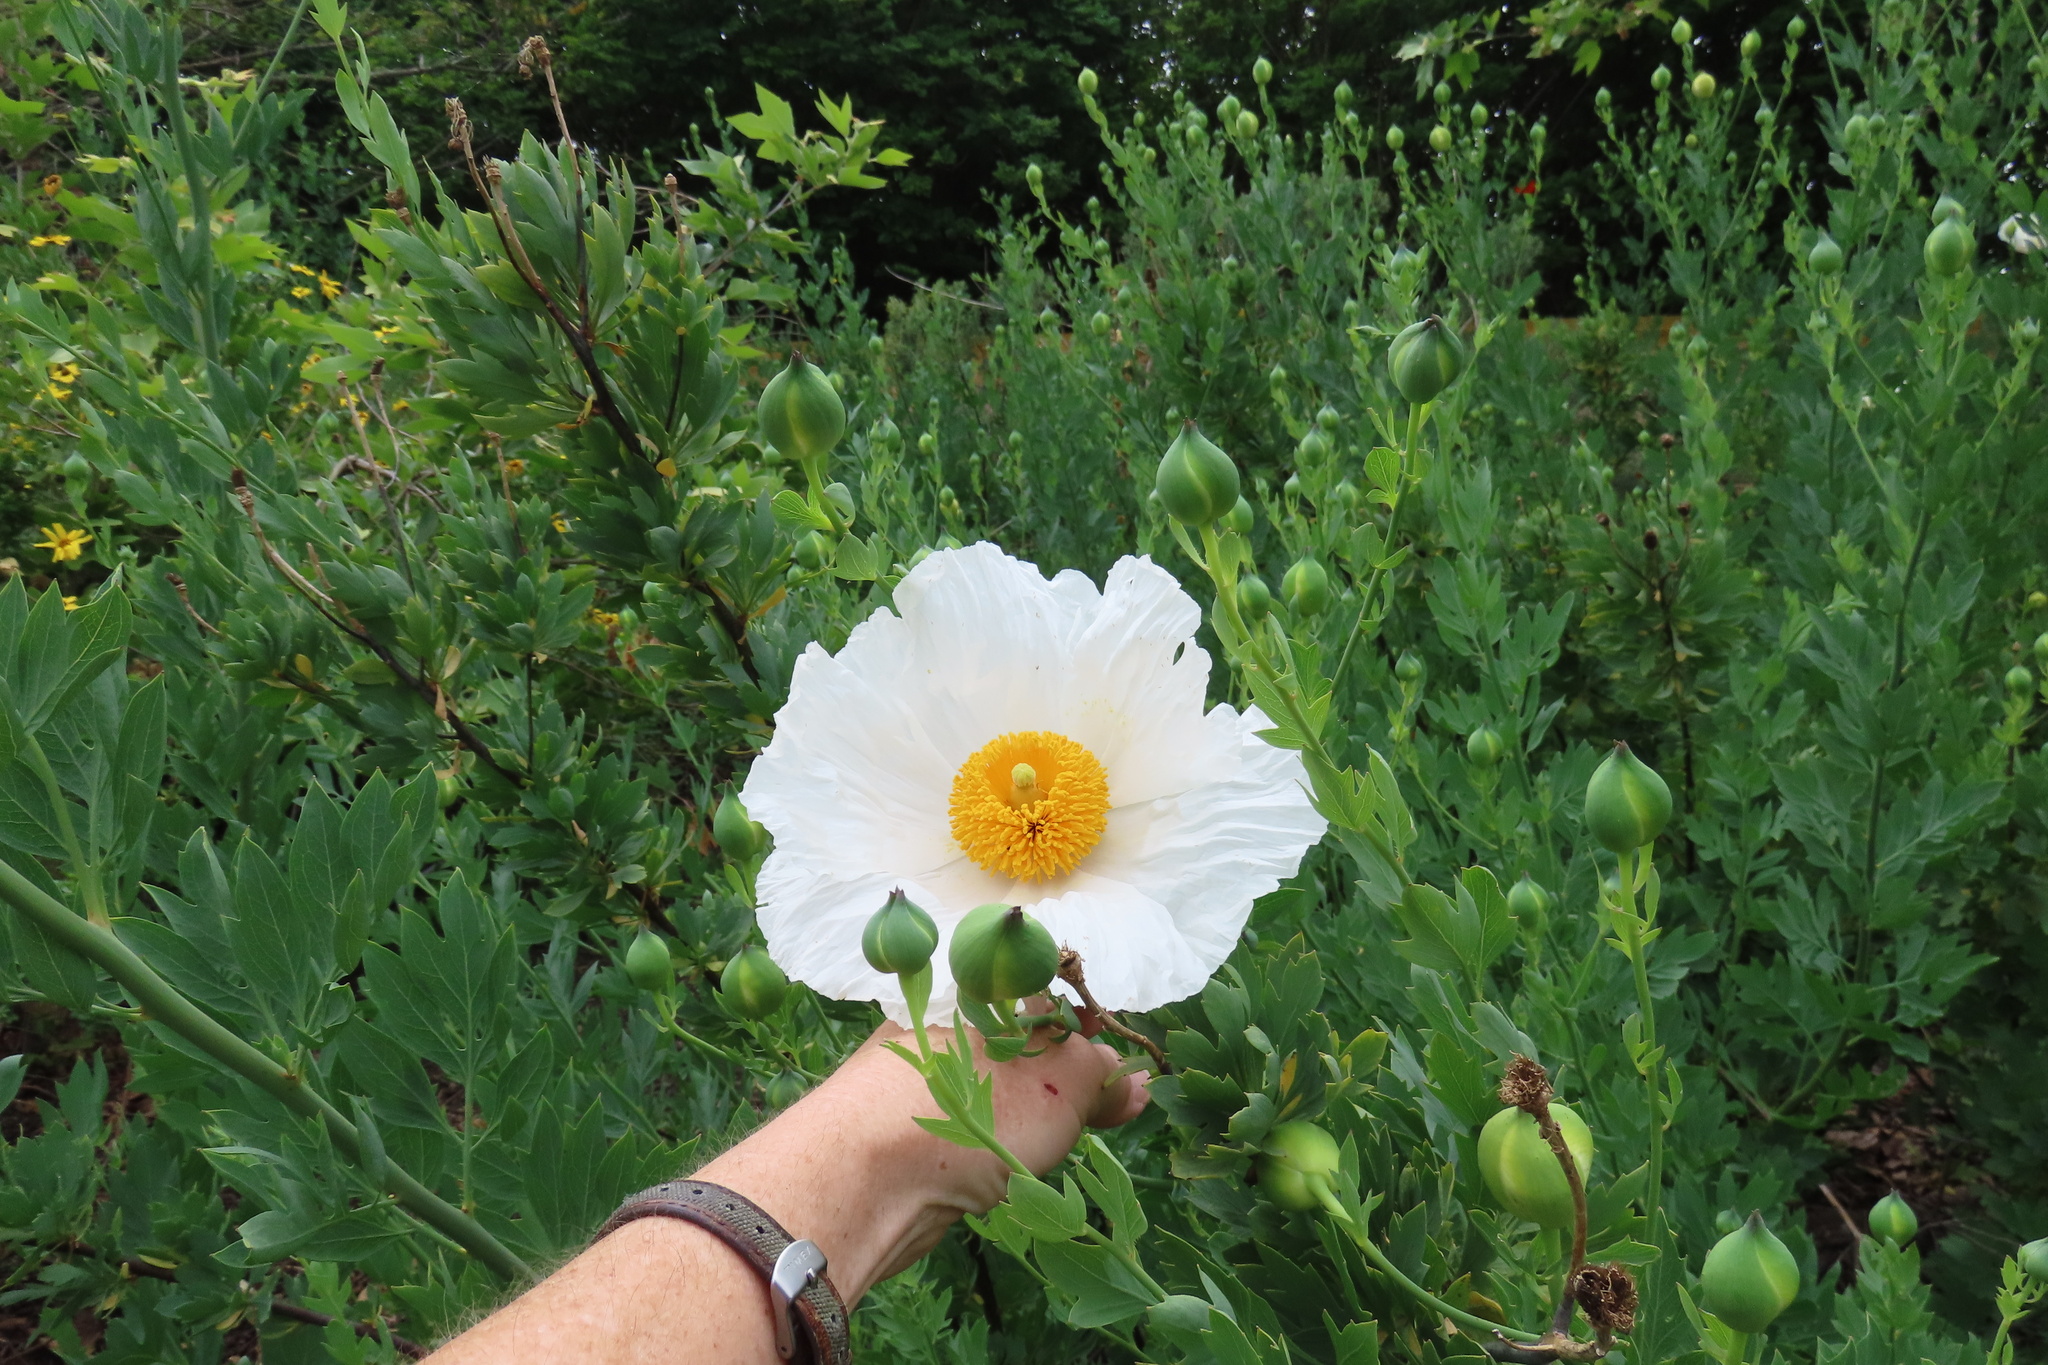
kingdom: Plantae
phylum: Tracheophyta
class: Magnoliopsida
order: Ranunculales
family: Papaveraceae
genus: Romneya
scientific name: Romneya coulteri
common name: California tree-poppy
